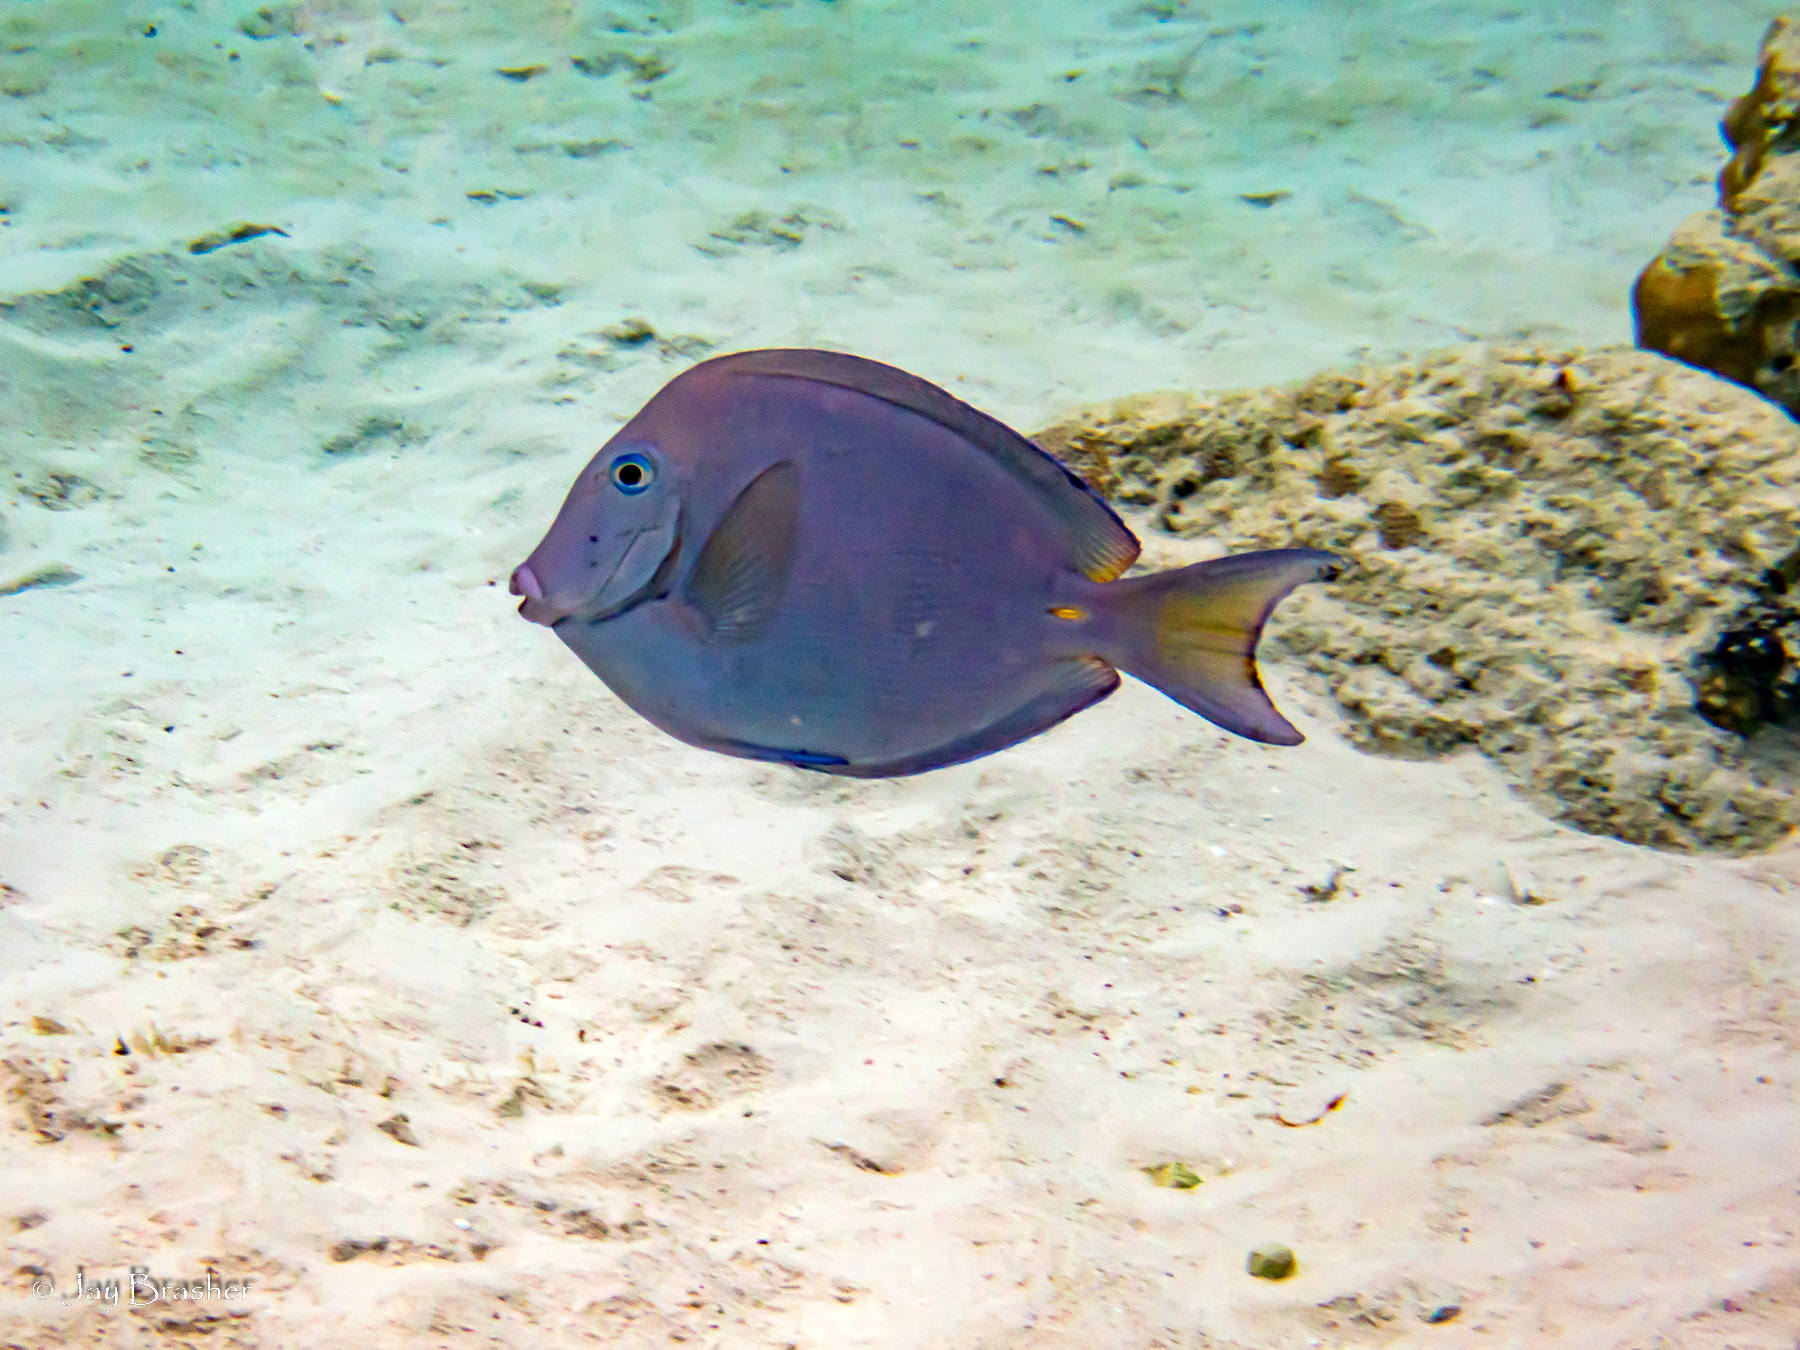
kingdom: Animalia
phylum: Chordata
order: Perciformes
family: Acanthuridae
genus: Acanthurus
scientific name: Acanthurus coeruleus
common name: Blue tang
